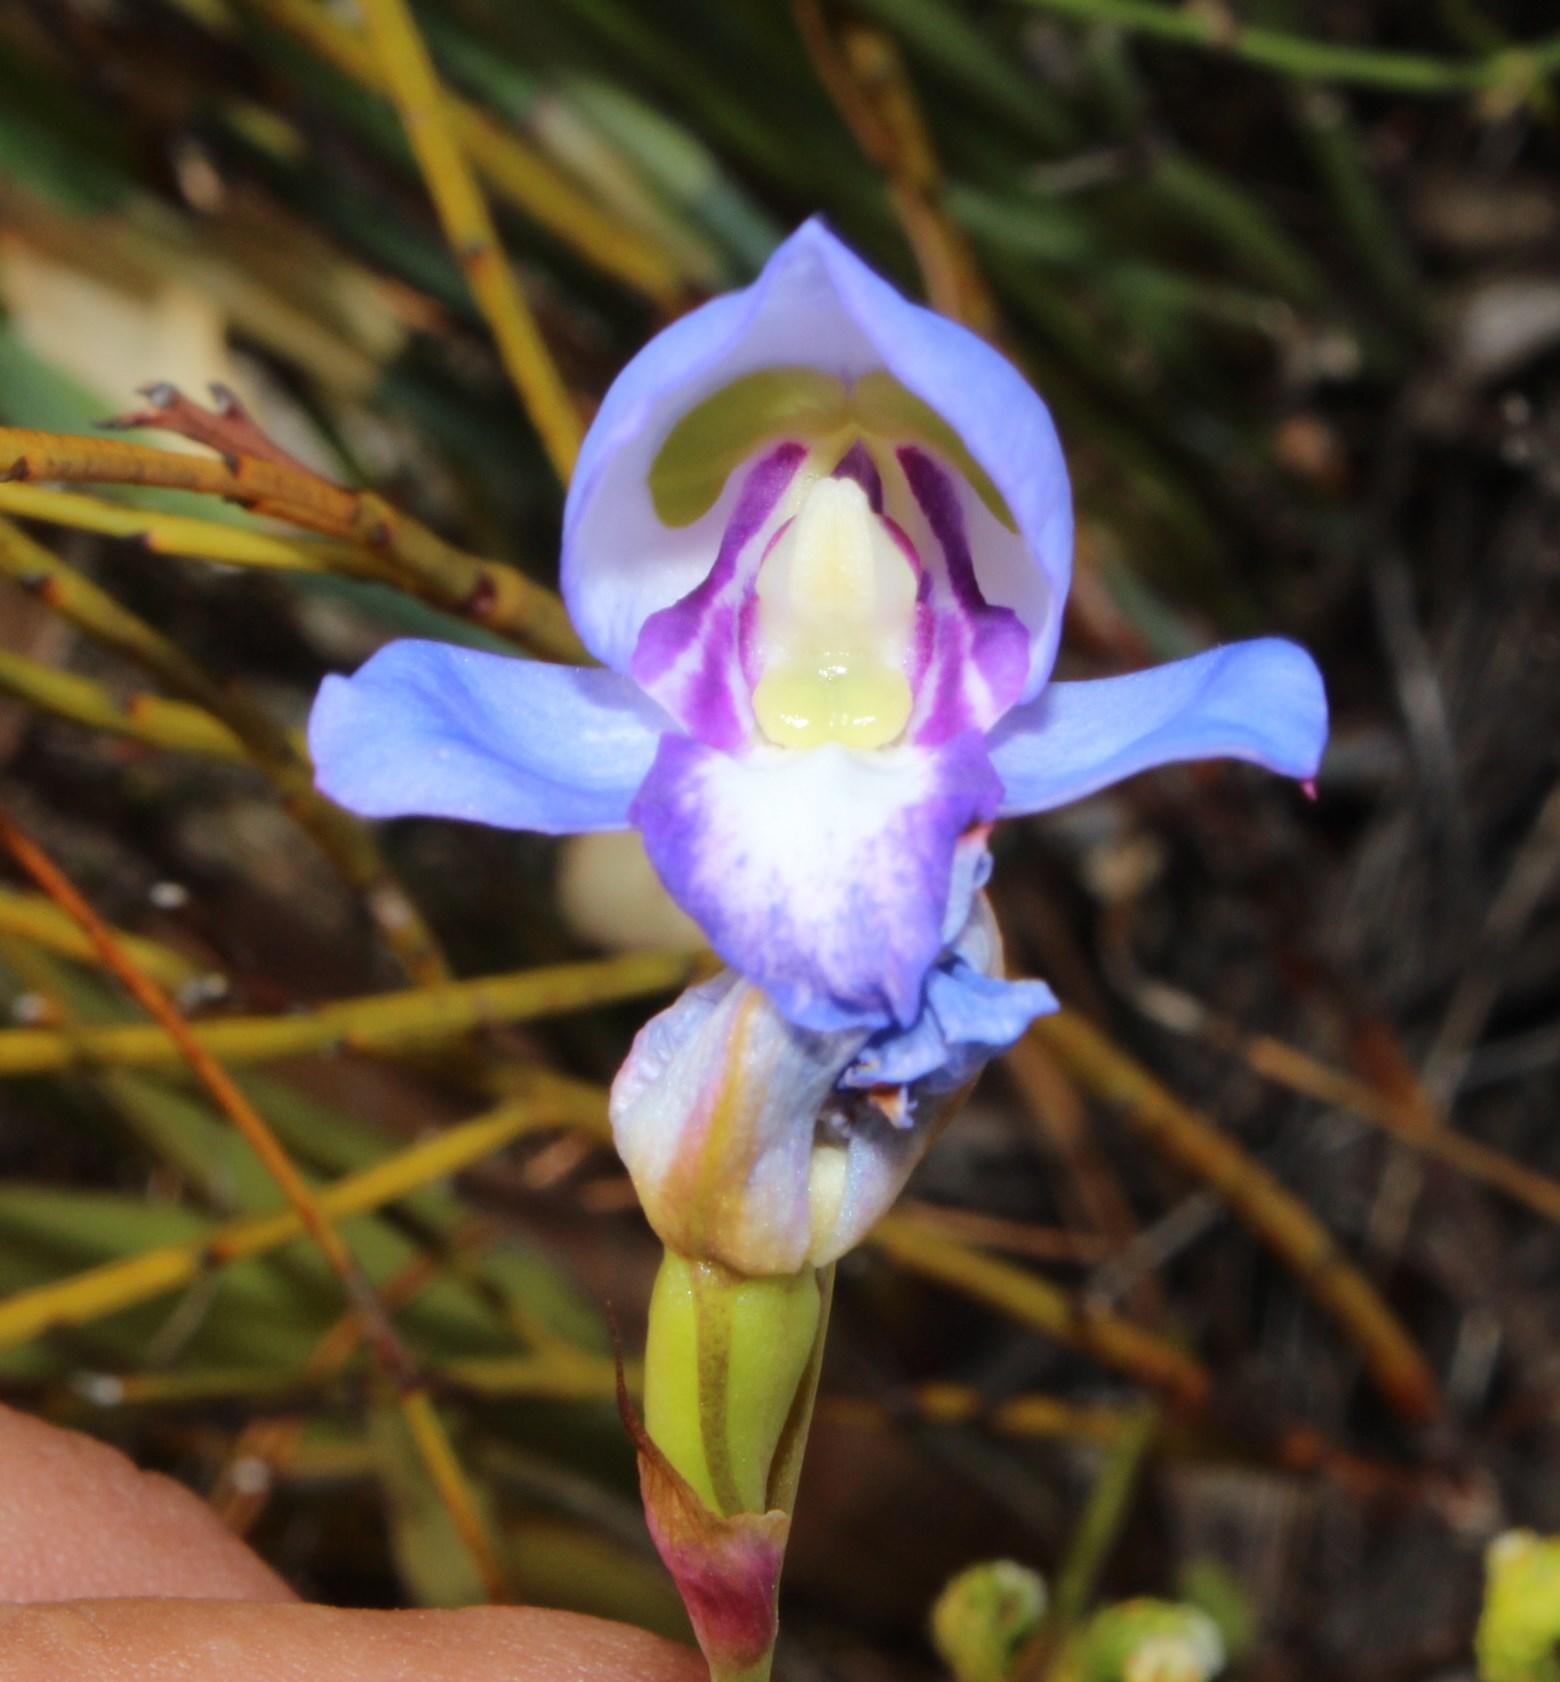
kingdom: Plantae
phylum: Tracheophyta
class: Liliopsida
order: Asparagales
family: Orchidaceae
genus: Disa
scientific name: Disa graminifolia
